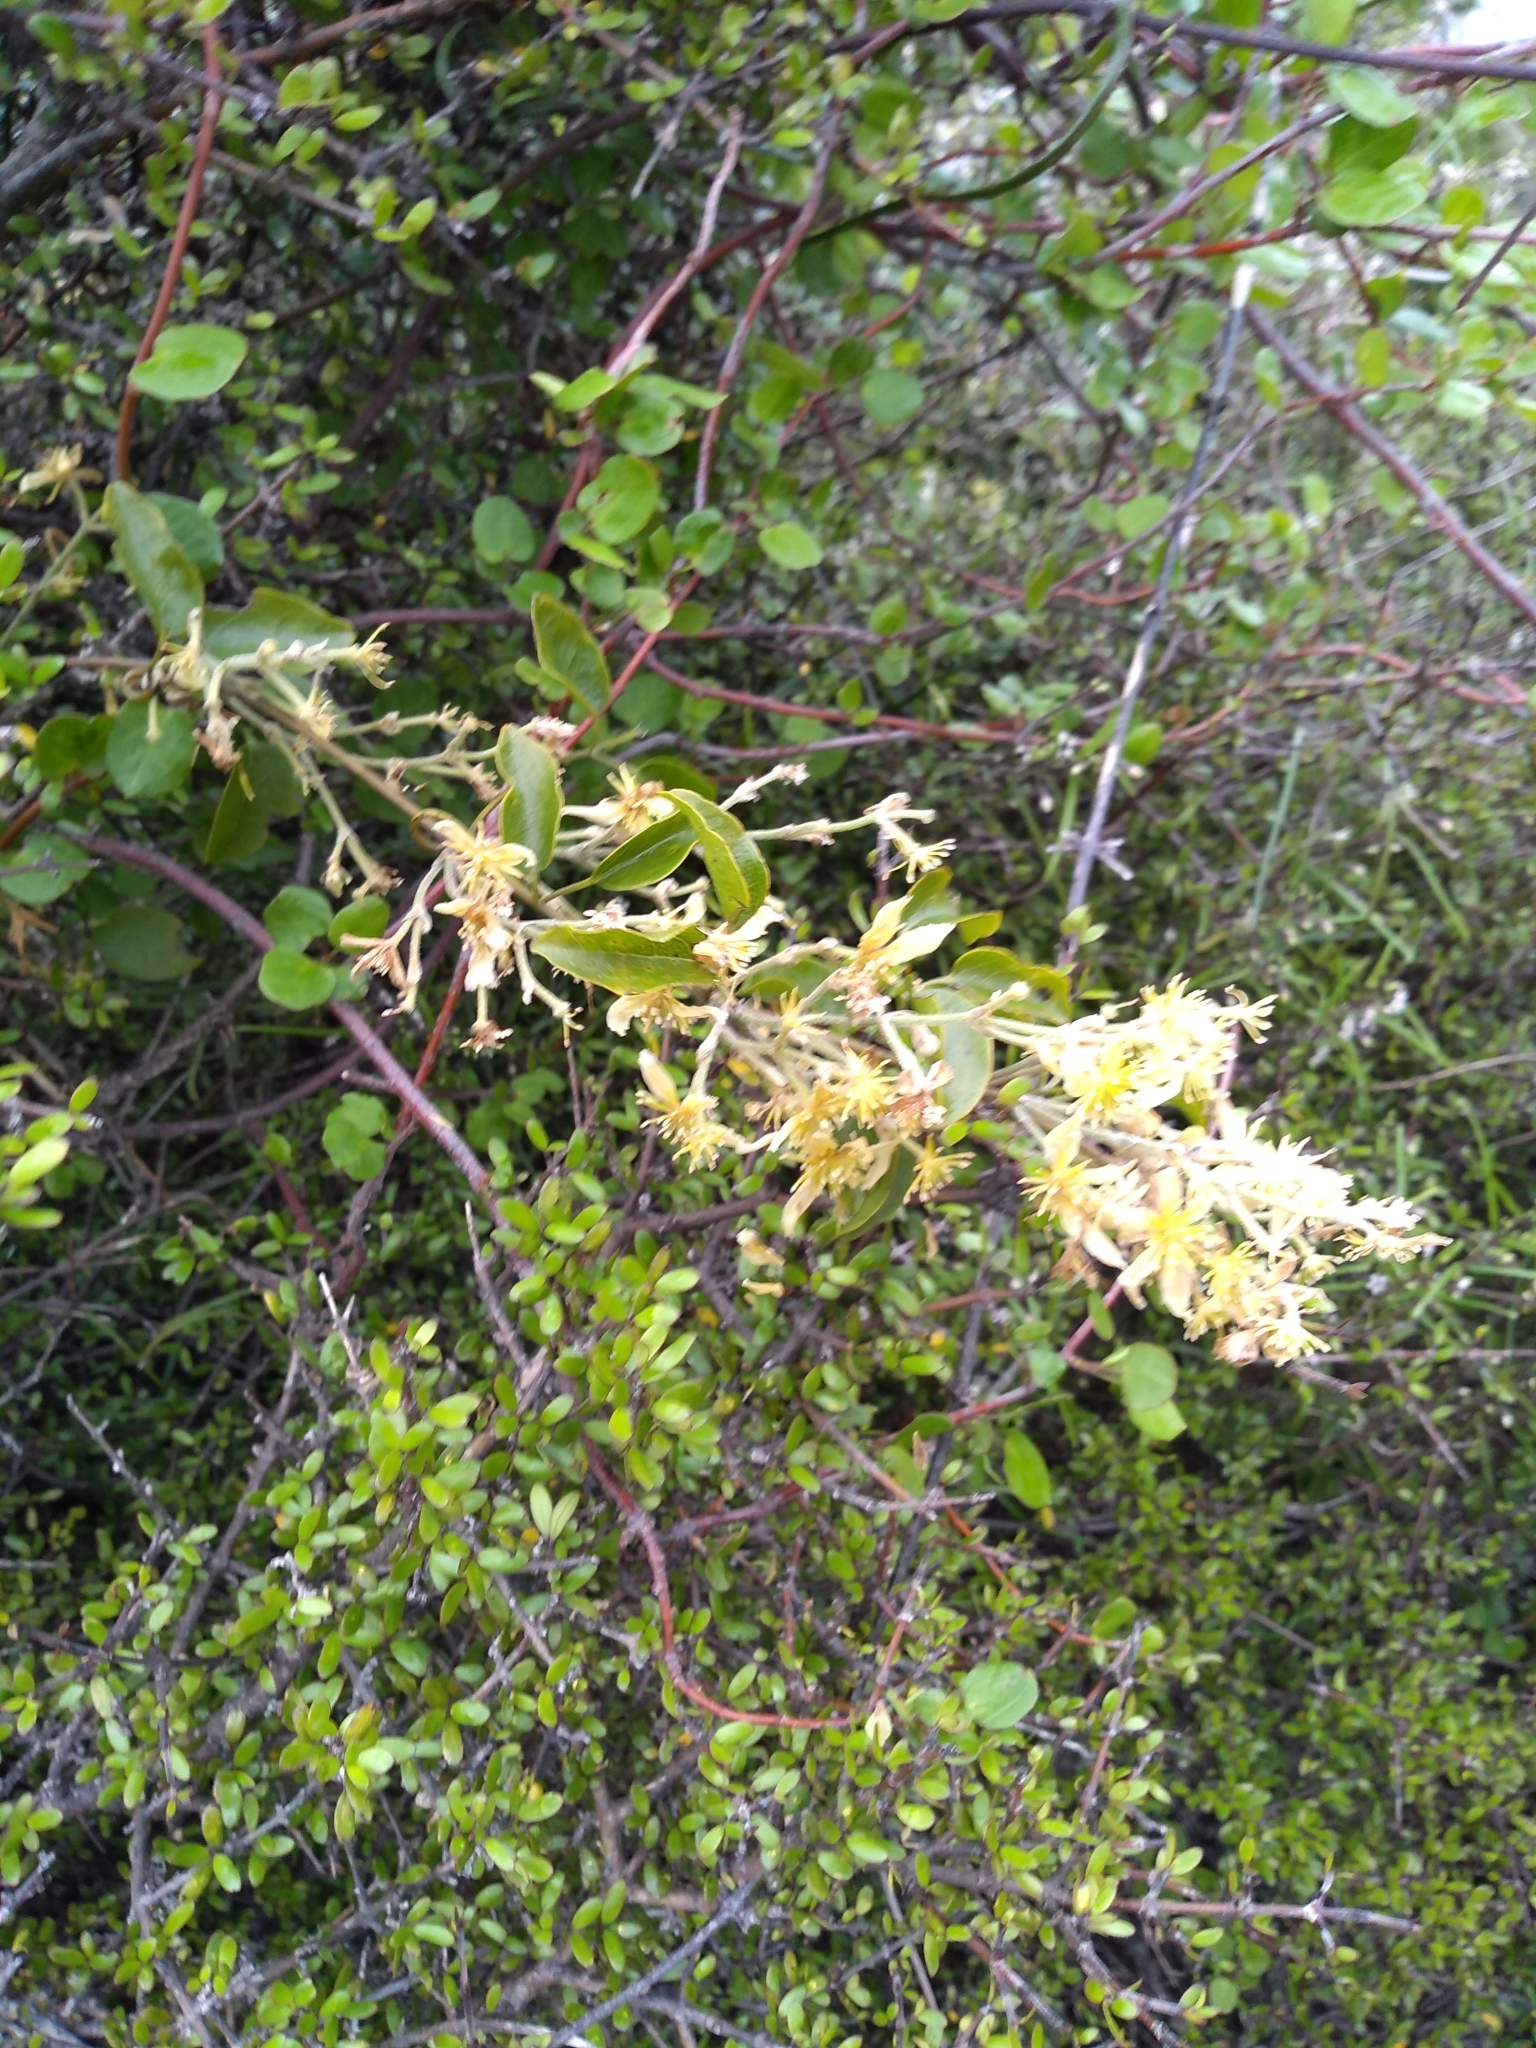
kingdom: Plantae
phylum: Tracheophyta
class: Magnoliopsida
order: Ranunculales
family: Ranunculaceae
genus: Clematis
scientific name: Clematis foetida
